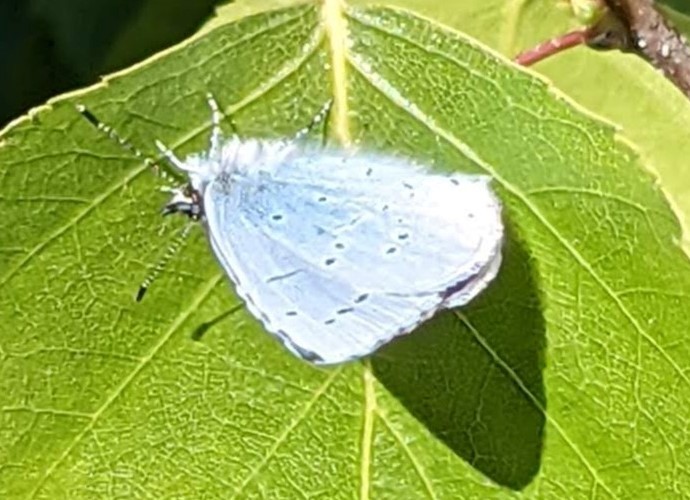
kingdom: Animalia
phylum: Arthropoda
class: Insecta
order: Lepidoptera
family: Lycaenidae
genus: Celastrina
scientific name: Celastrina argiolus
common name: Holly blue
